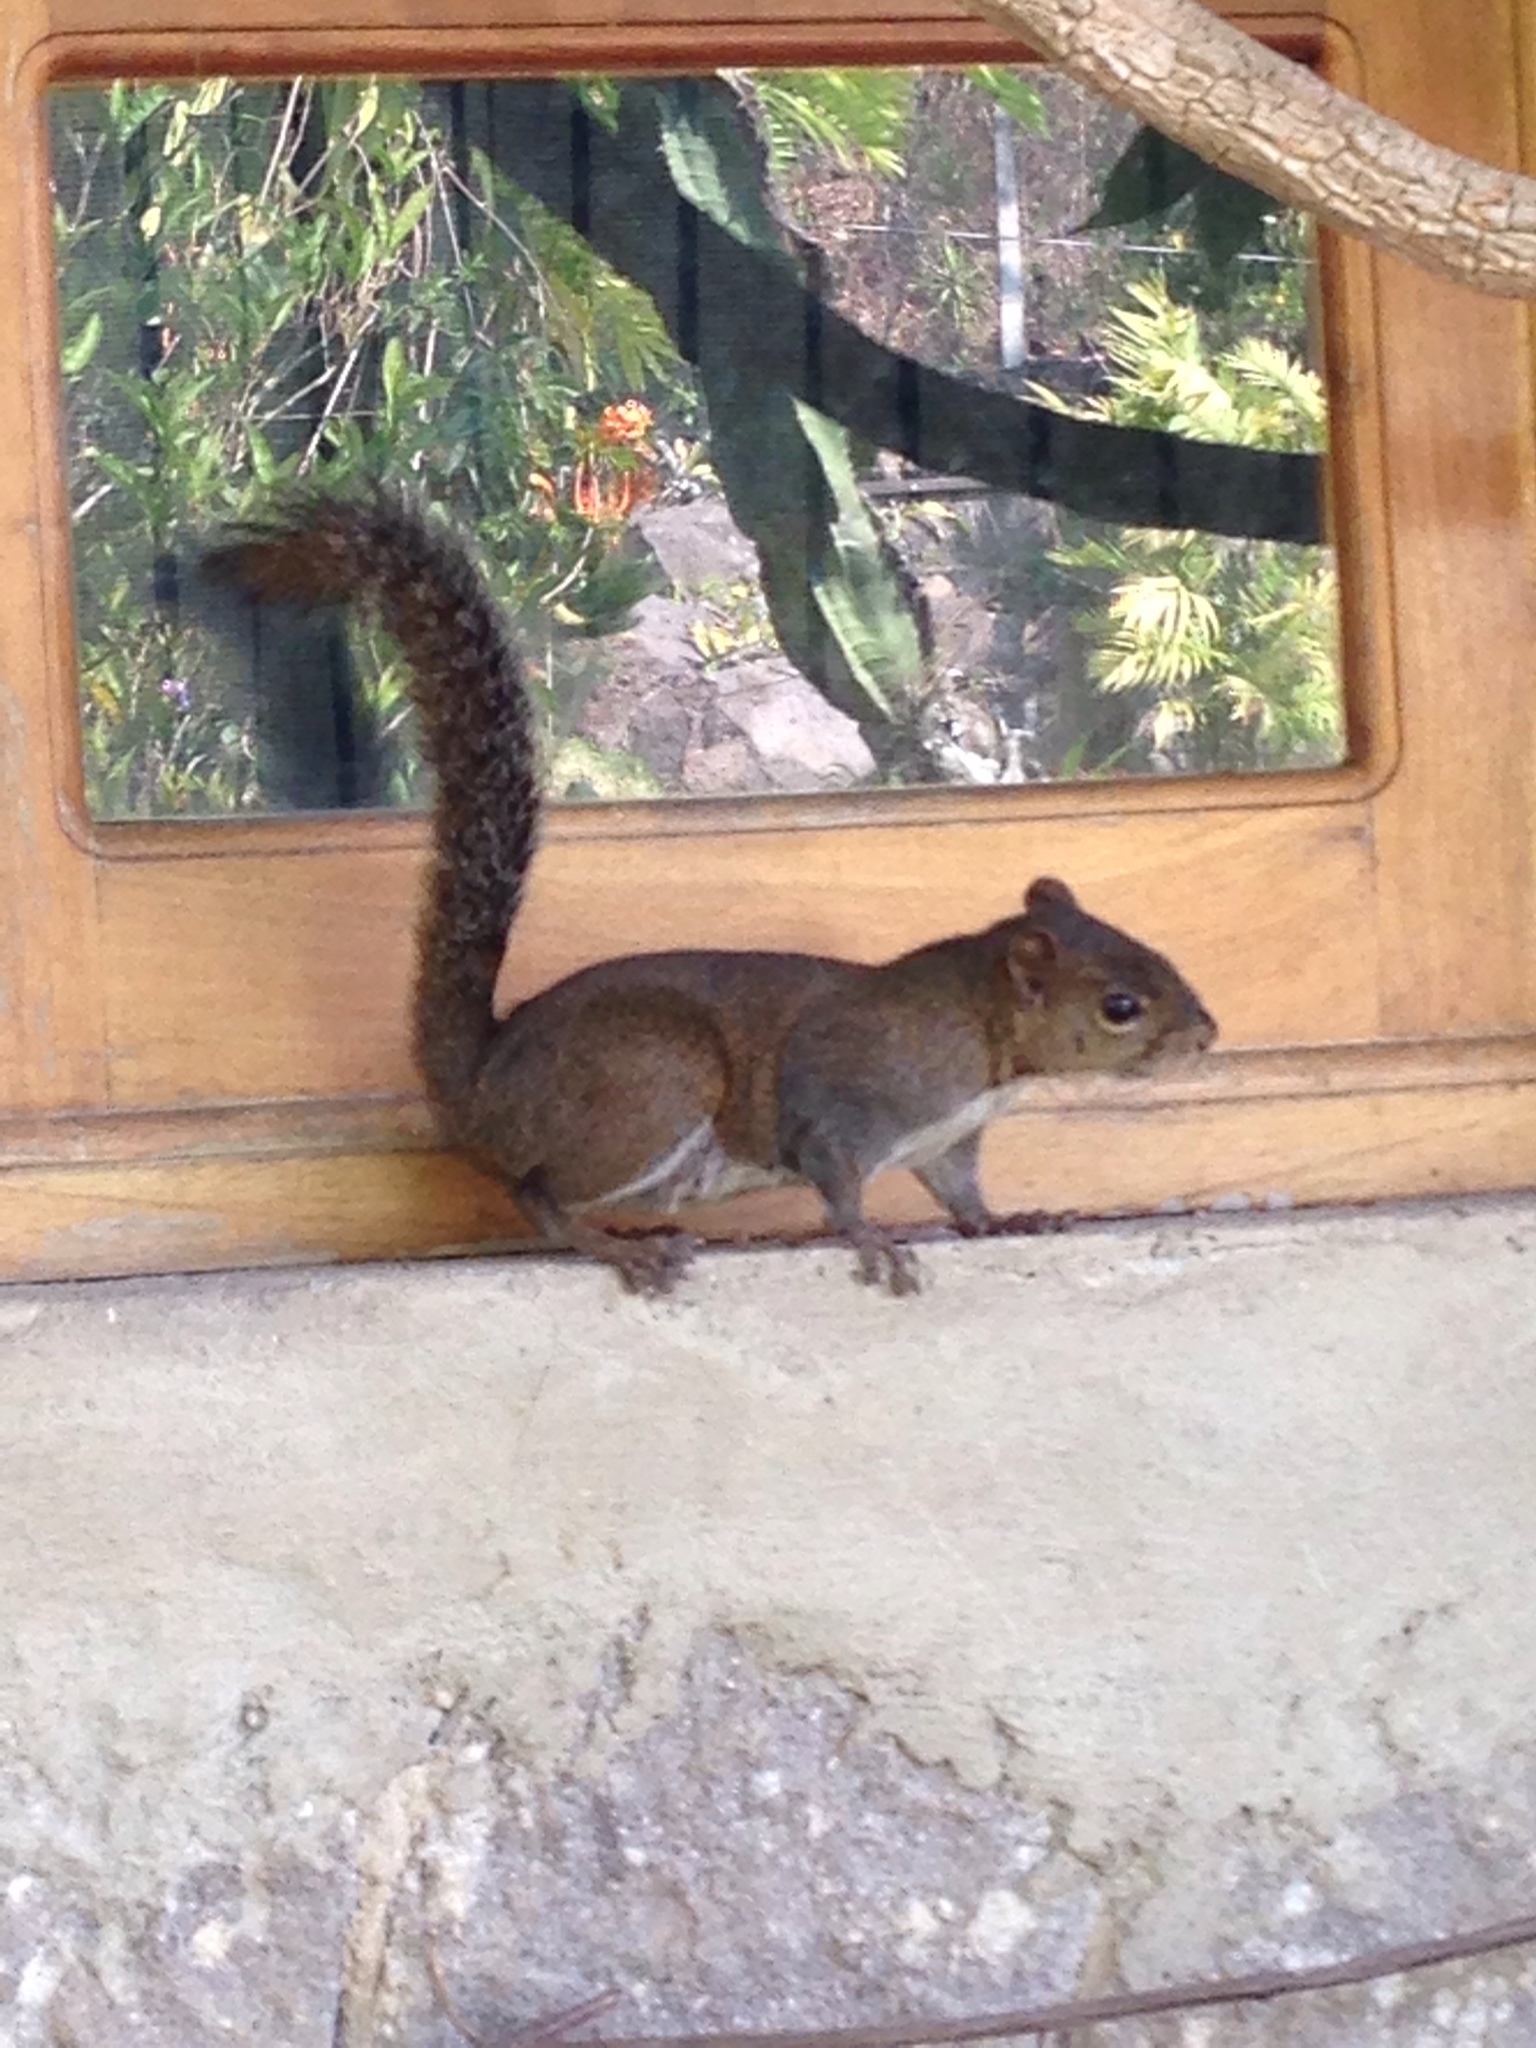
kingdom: Animalia
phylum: Chordata
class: Mammalia
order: Rodentia
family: Sciuridae
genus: Sciurus
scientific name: Sciurus deppei
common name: Deppe's squirrel
